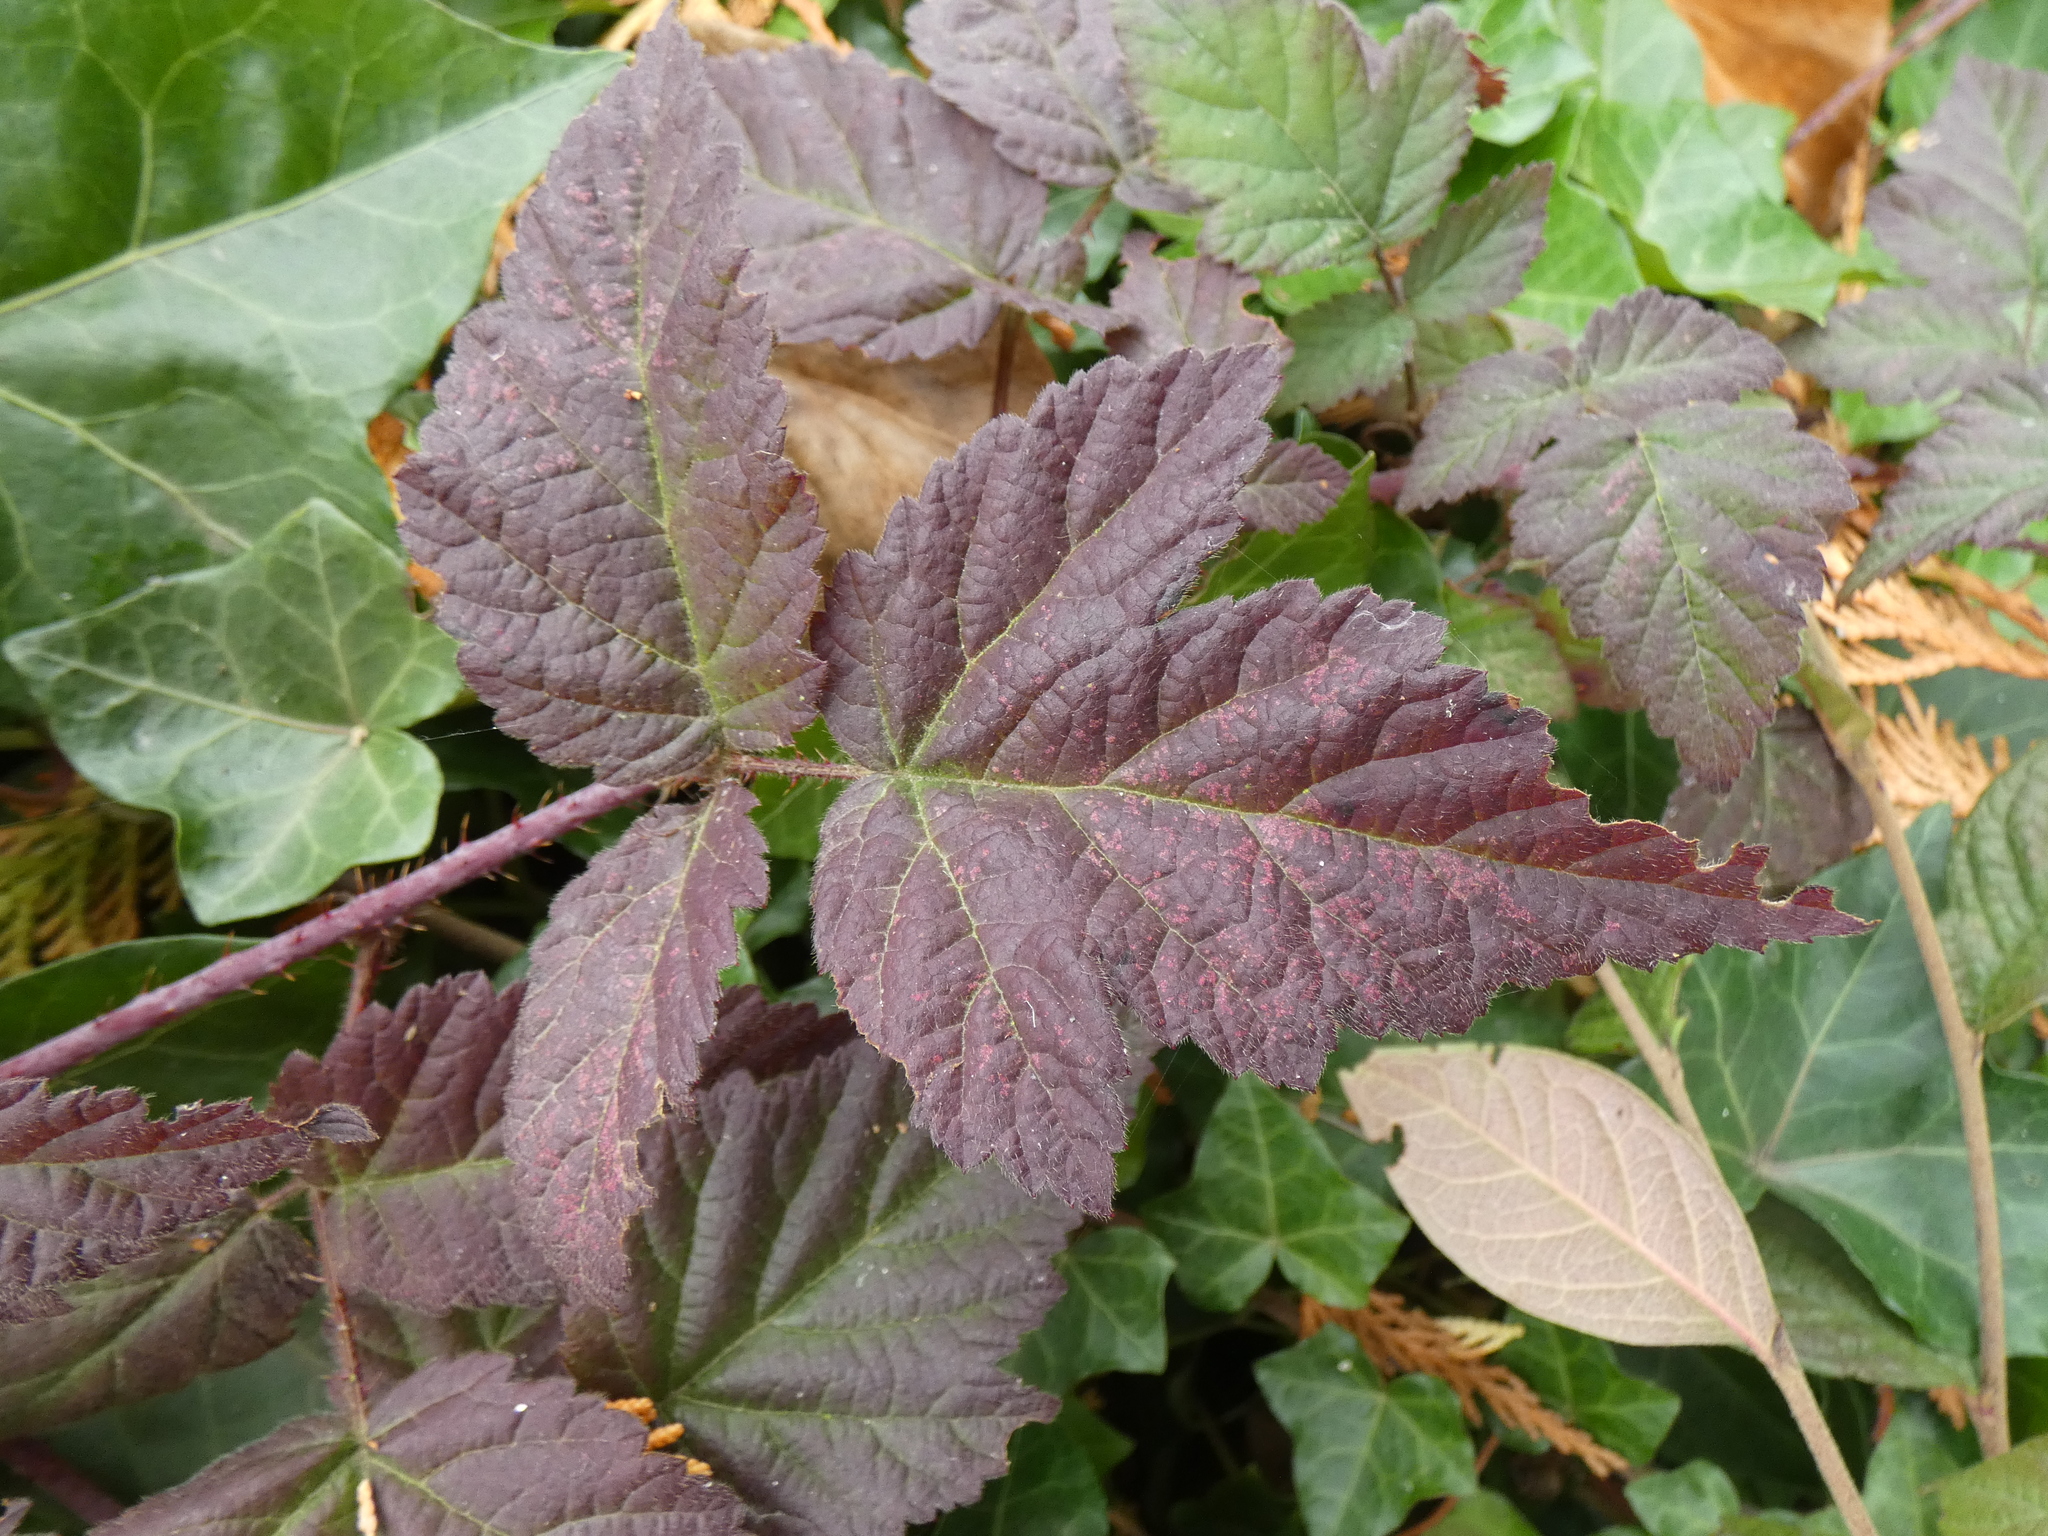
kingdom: Plantae
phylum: Tracheophyta
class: Magnoliopsida
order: Rosales
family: Rosaceae
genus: Rubus
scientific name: Rubus ursinus
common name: Pacific blackberry
